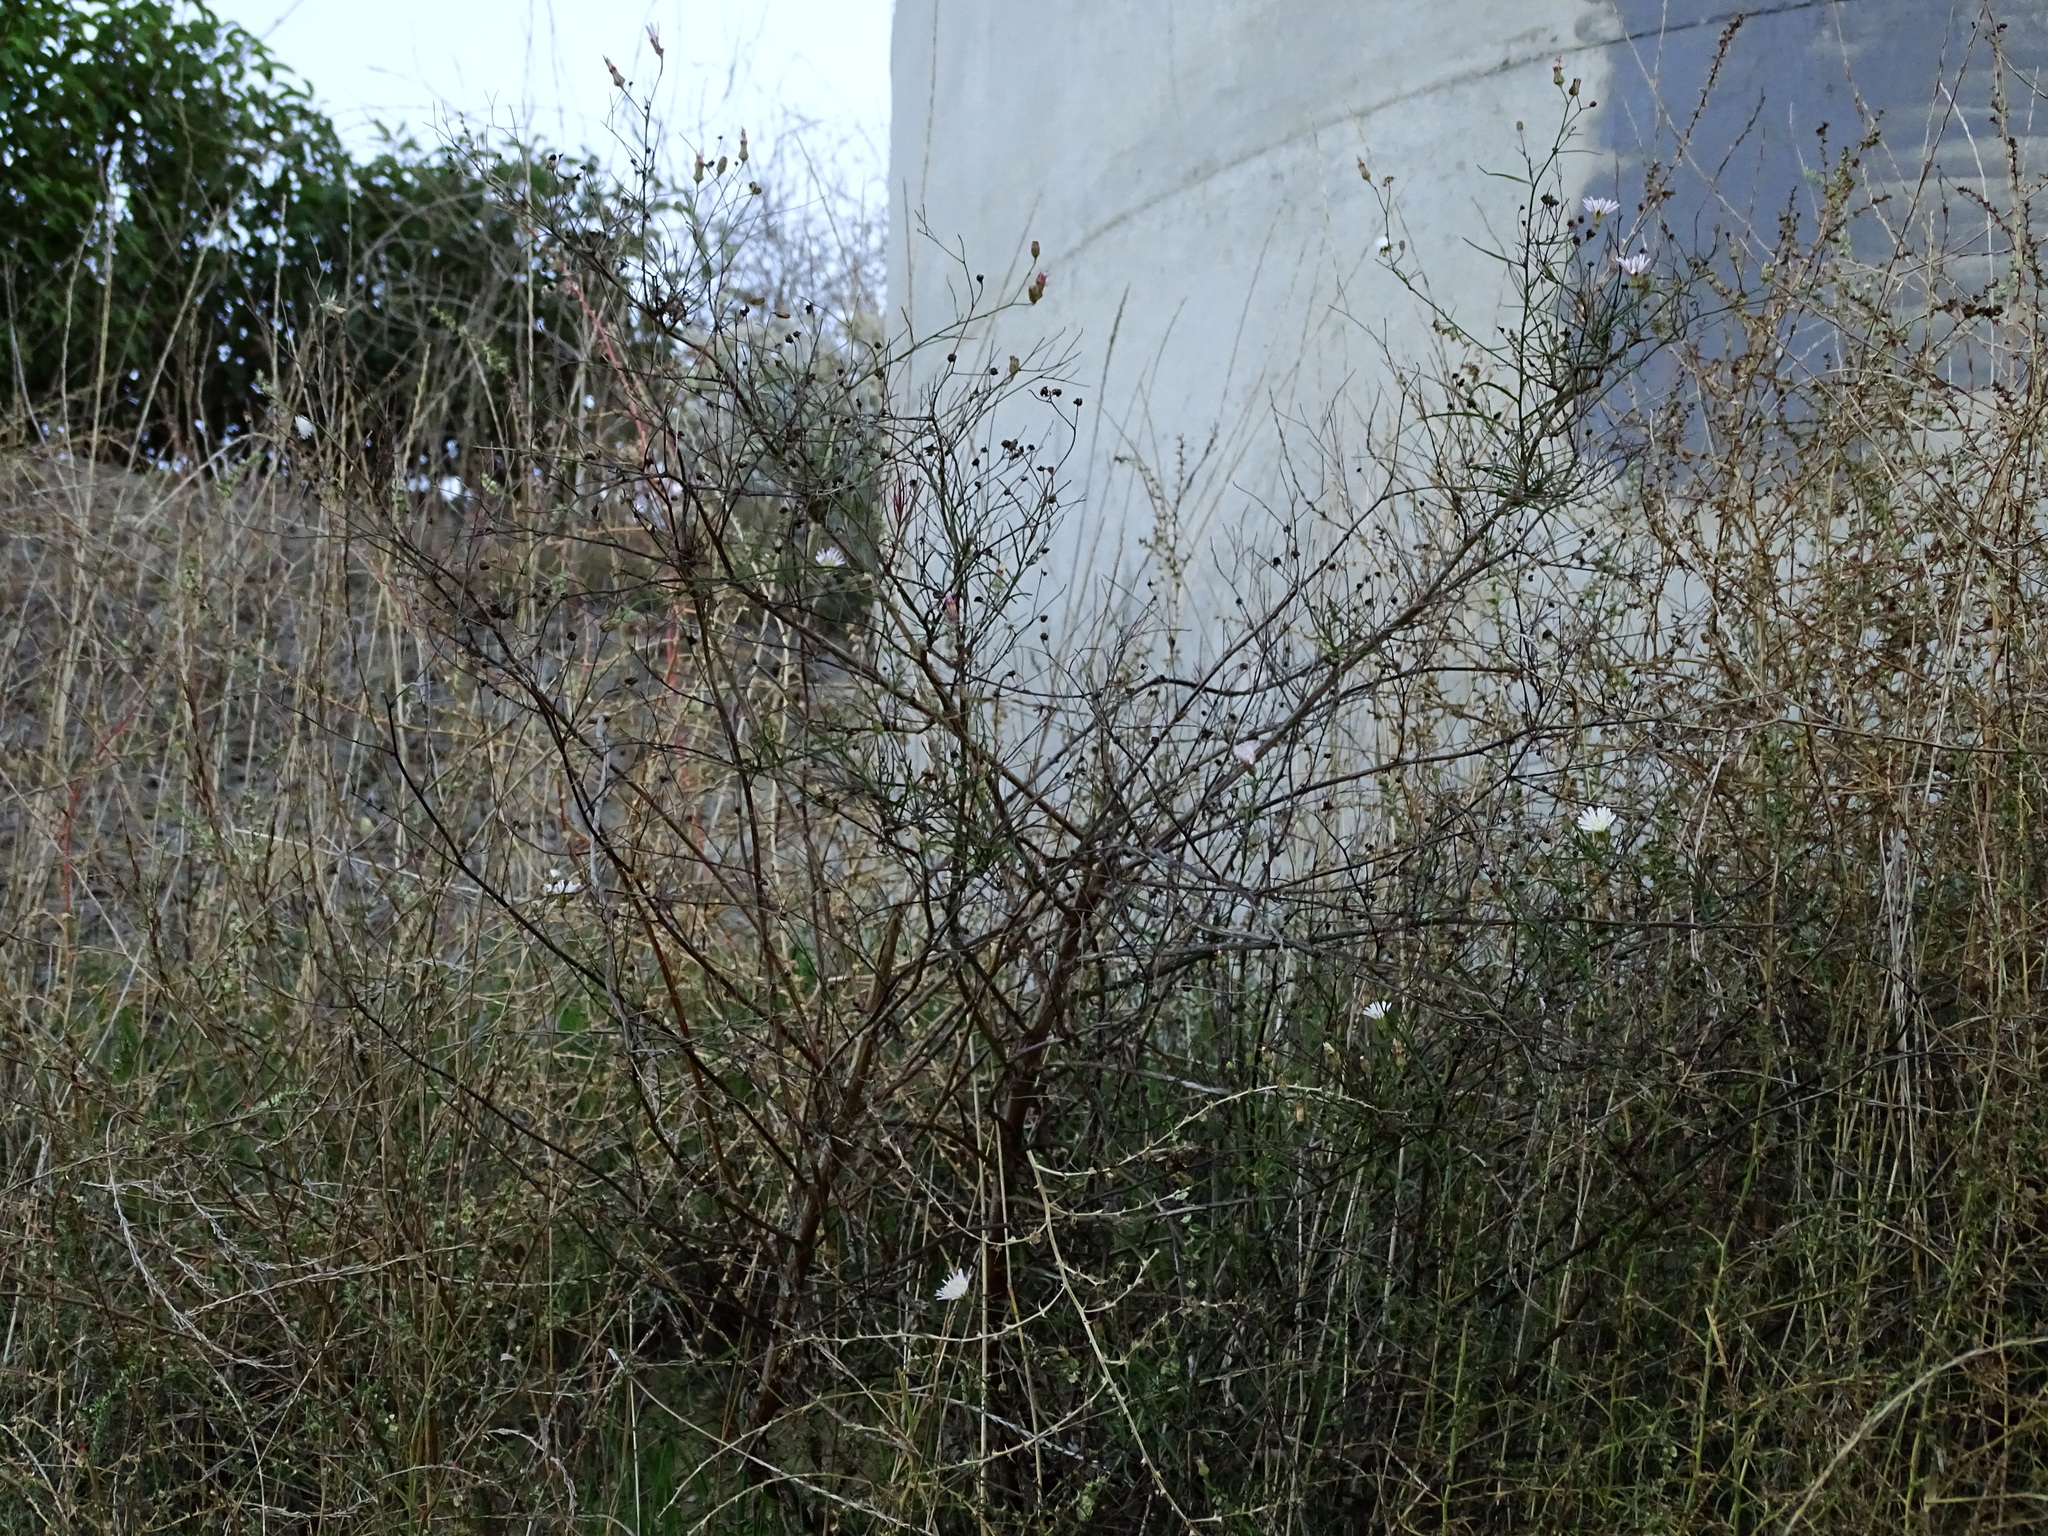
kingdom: Plantae
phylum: Tracheophyta
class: Magnoliopsida
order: Asterales
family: Asteraceae
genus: Malacothrix
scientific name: Malacothrix saxatilis
